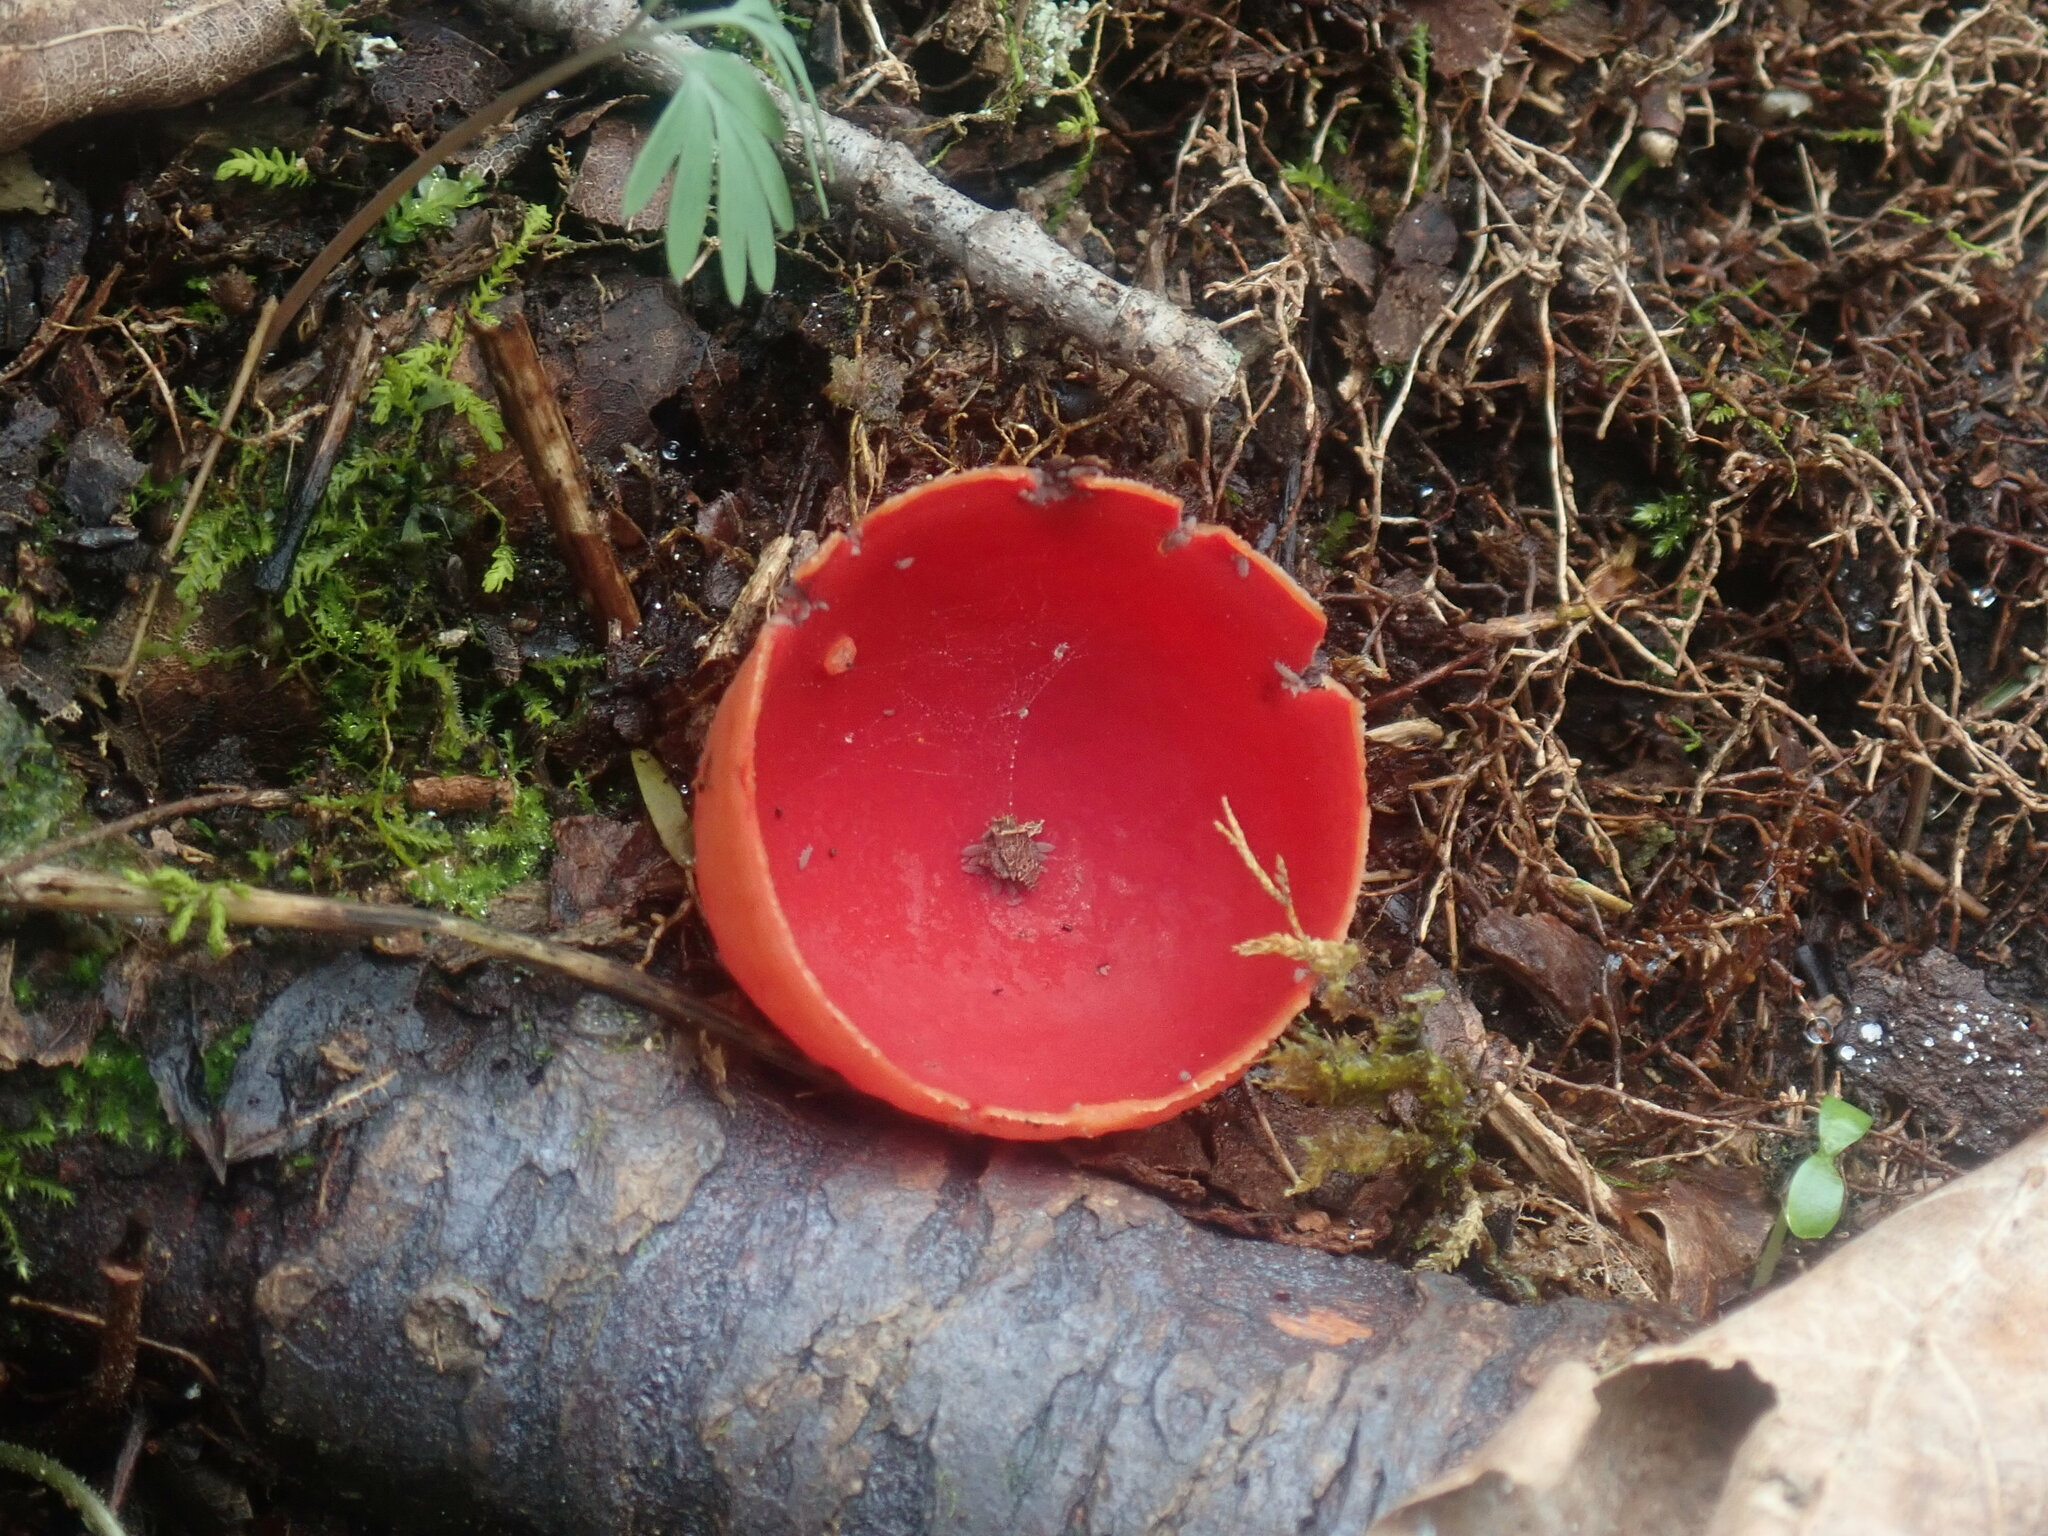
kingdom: Fungi
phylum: Ascomycota
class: Pezizomycetes
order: Pezizales
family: Sarcoscyphaceae
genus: Sarcoscypha
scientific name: Sarcoscypha
